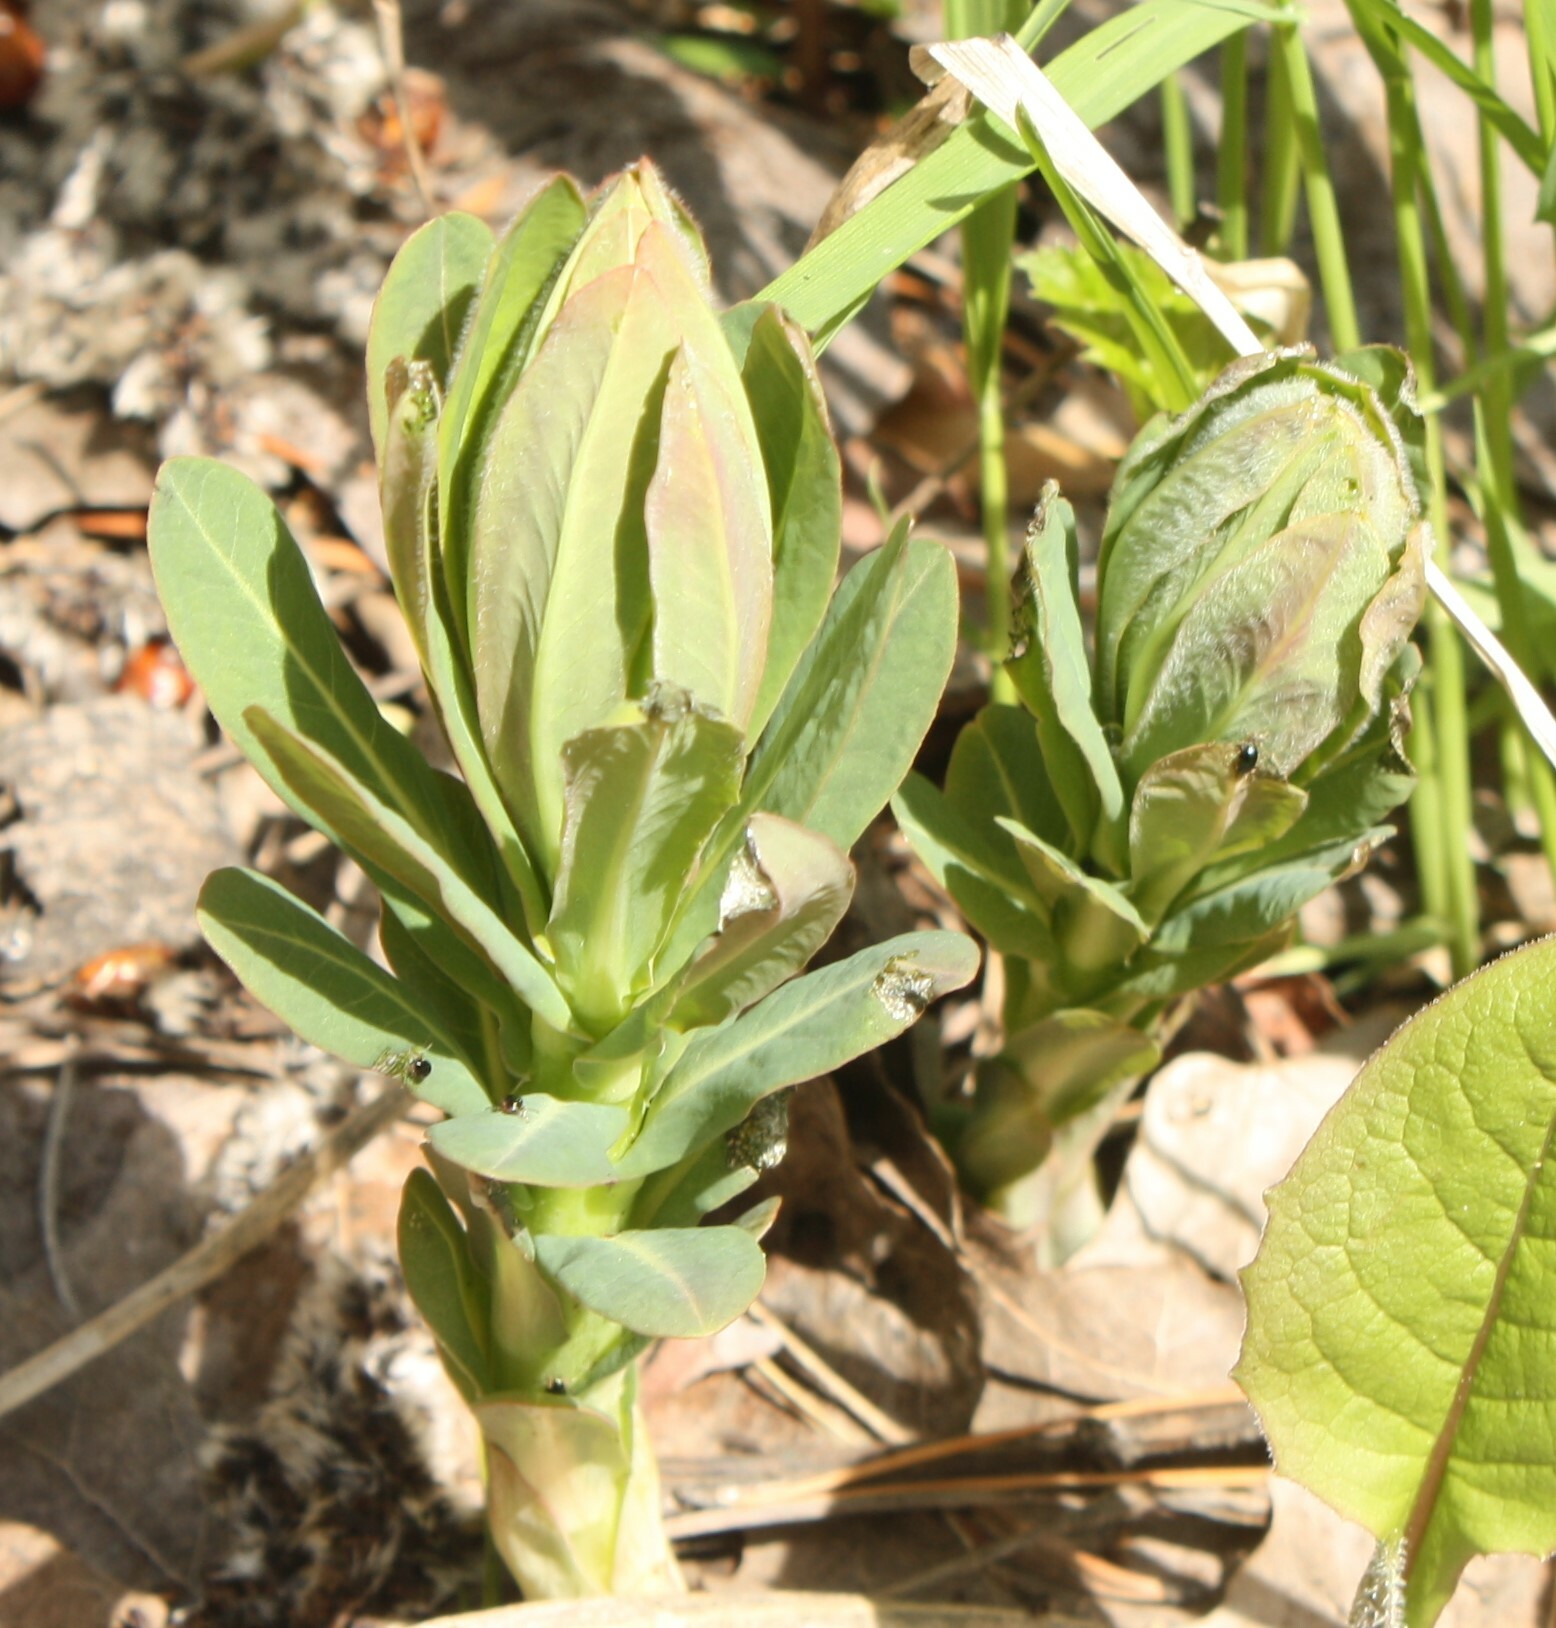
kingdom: Plantae
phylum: Tracheophyta
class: Magnoliopsida
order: Malpighiales
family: Euphorbiaceae
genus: Euphorbia
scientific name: Euphorbia pilosa
